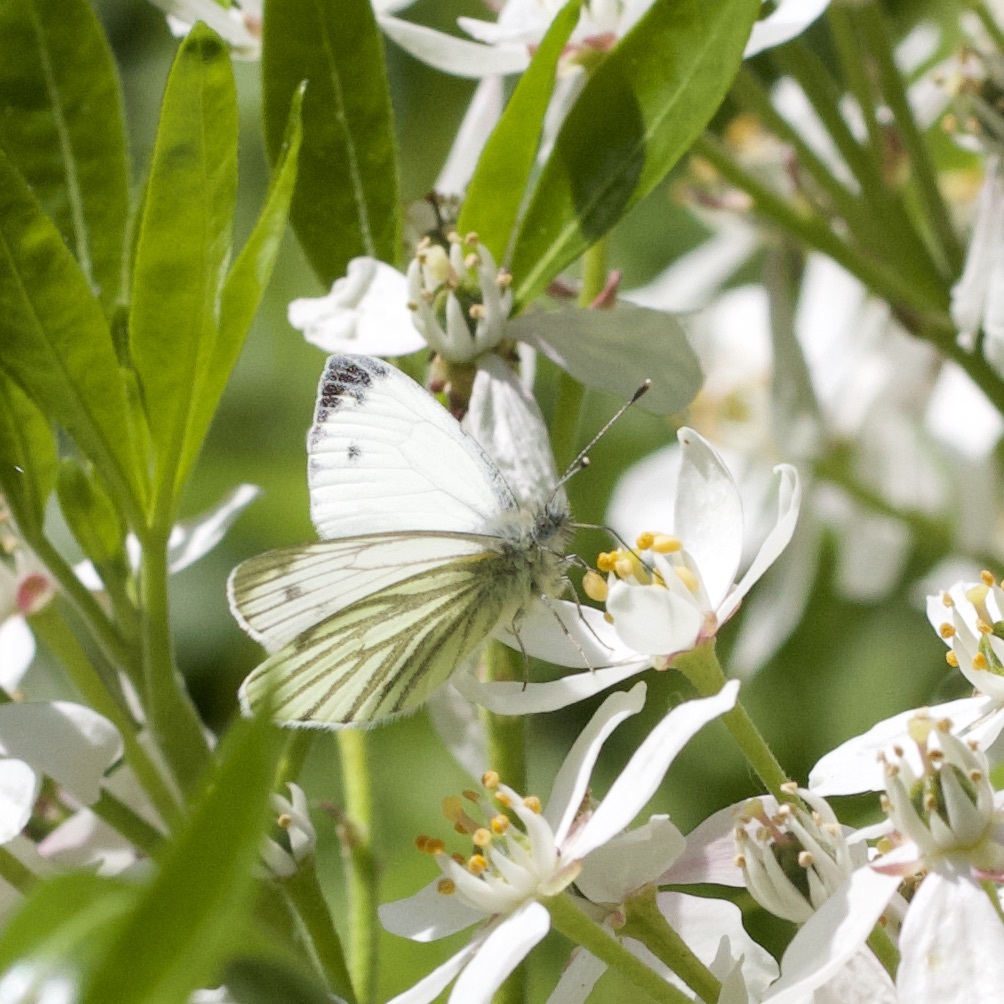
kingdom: Animalia
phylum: Arthropoda
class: Insecta
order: Lepidoptera
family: Pieridae
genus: Pieris
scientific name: Pieris napi
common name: Green-veined white
